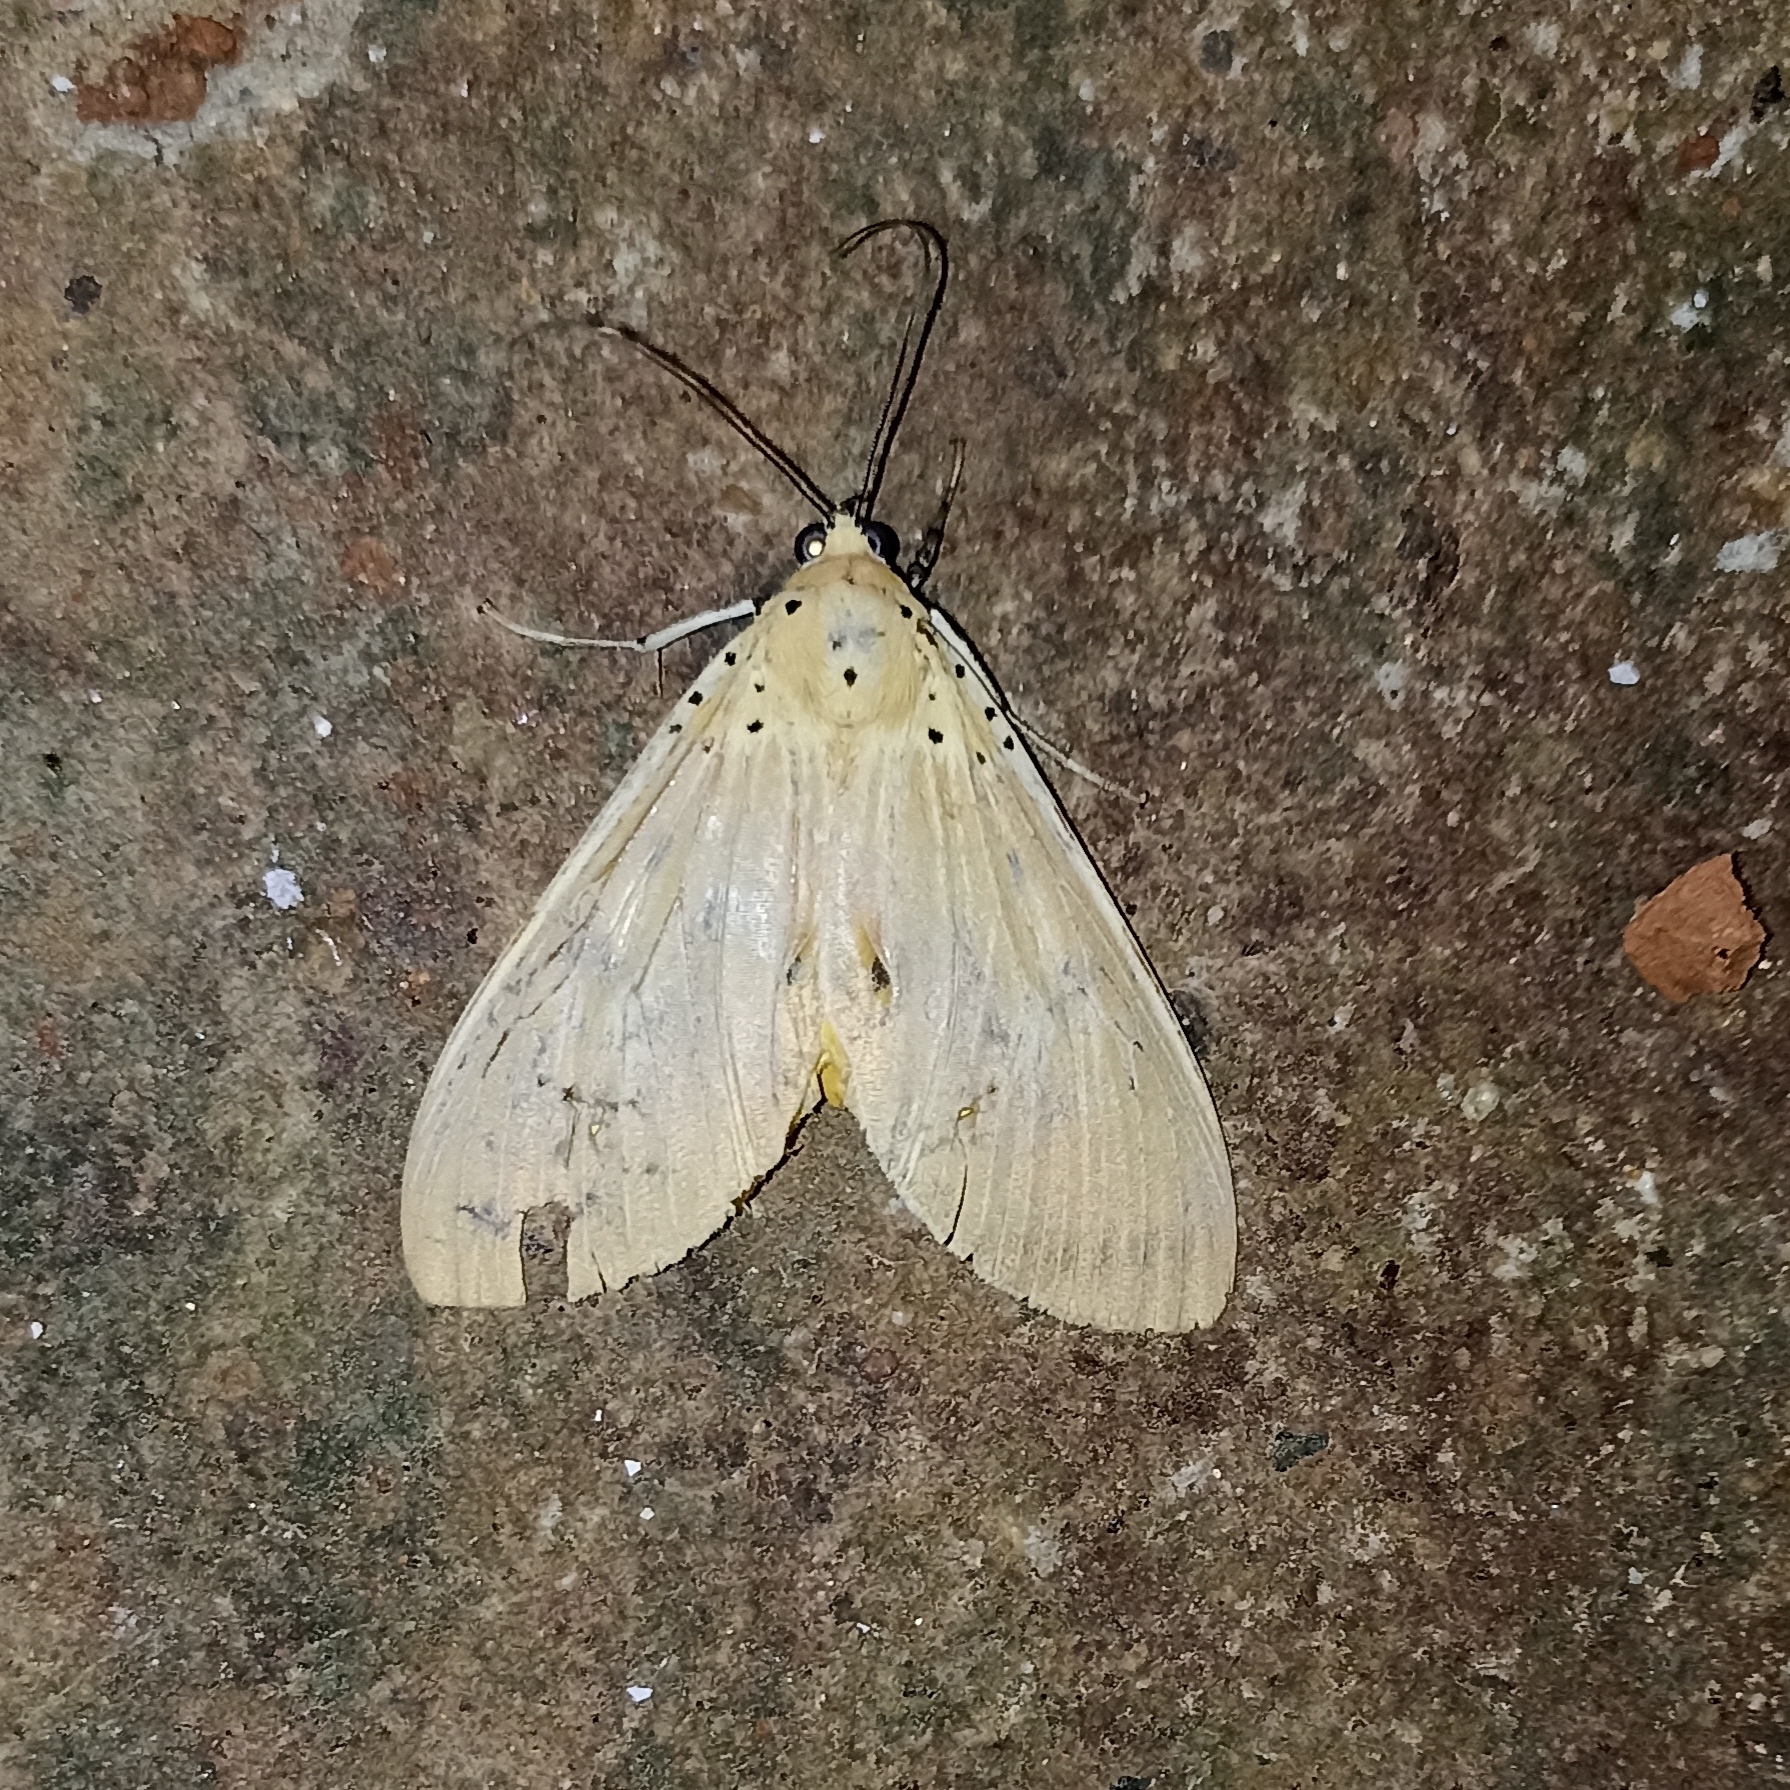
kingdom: Animalia
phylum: Arthropoda
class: Insecta
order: Lepidoptera
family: Erebidae
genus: Asota
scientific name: Asota caricae
